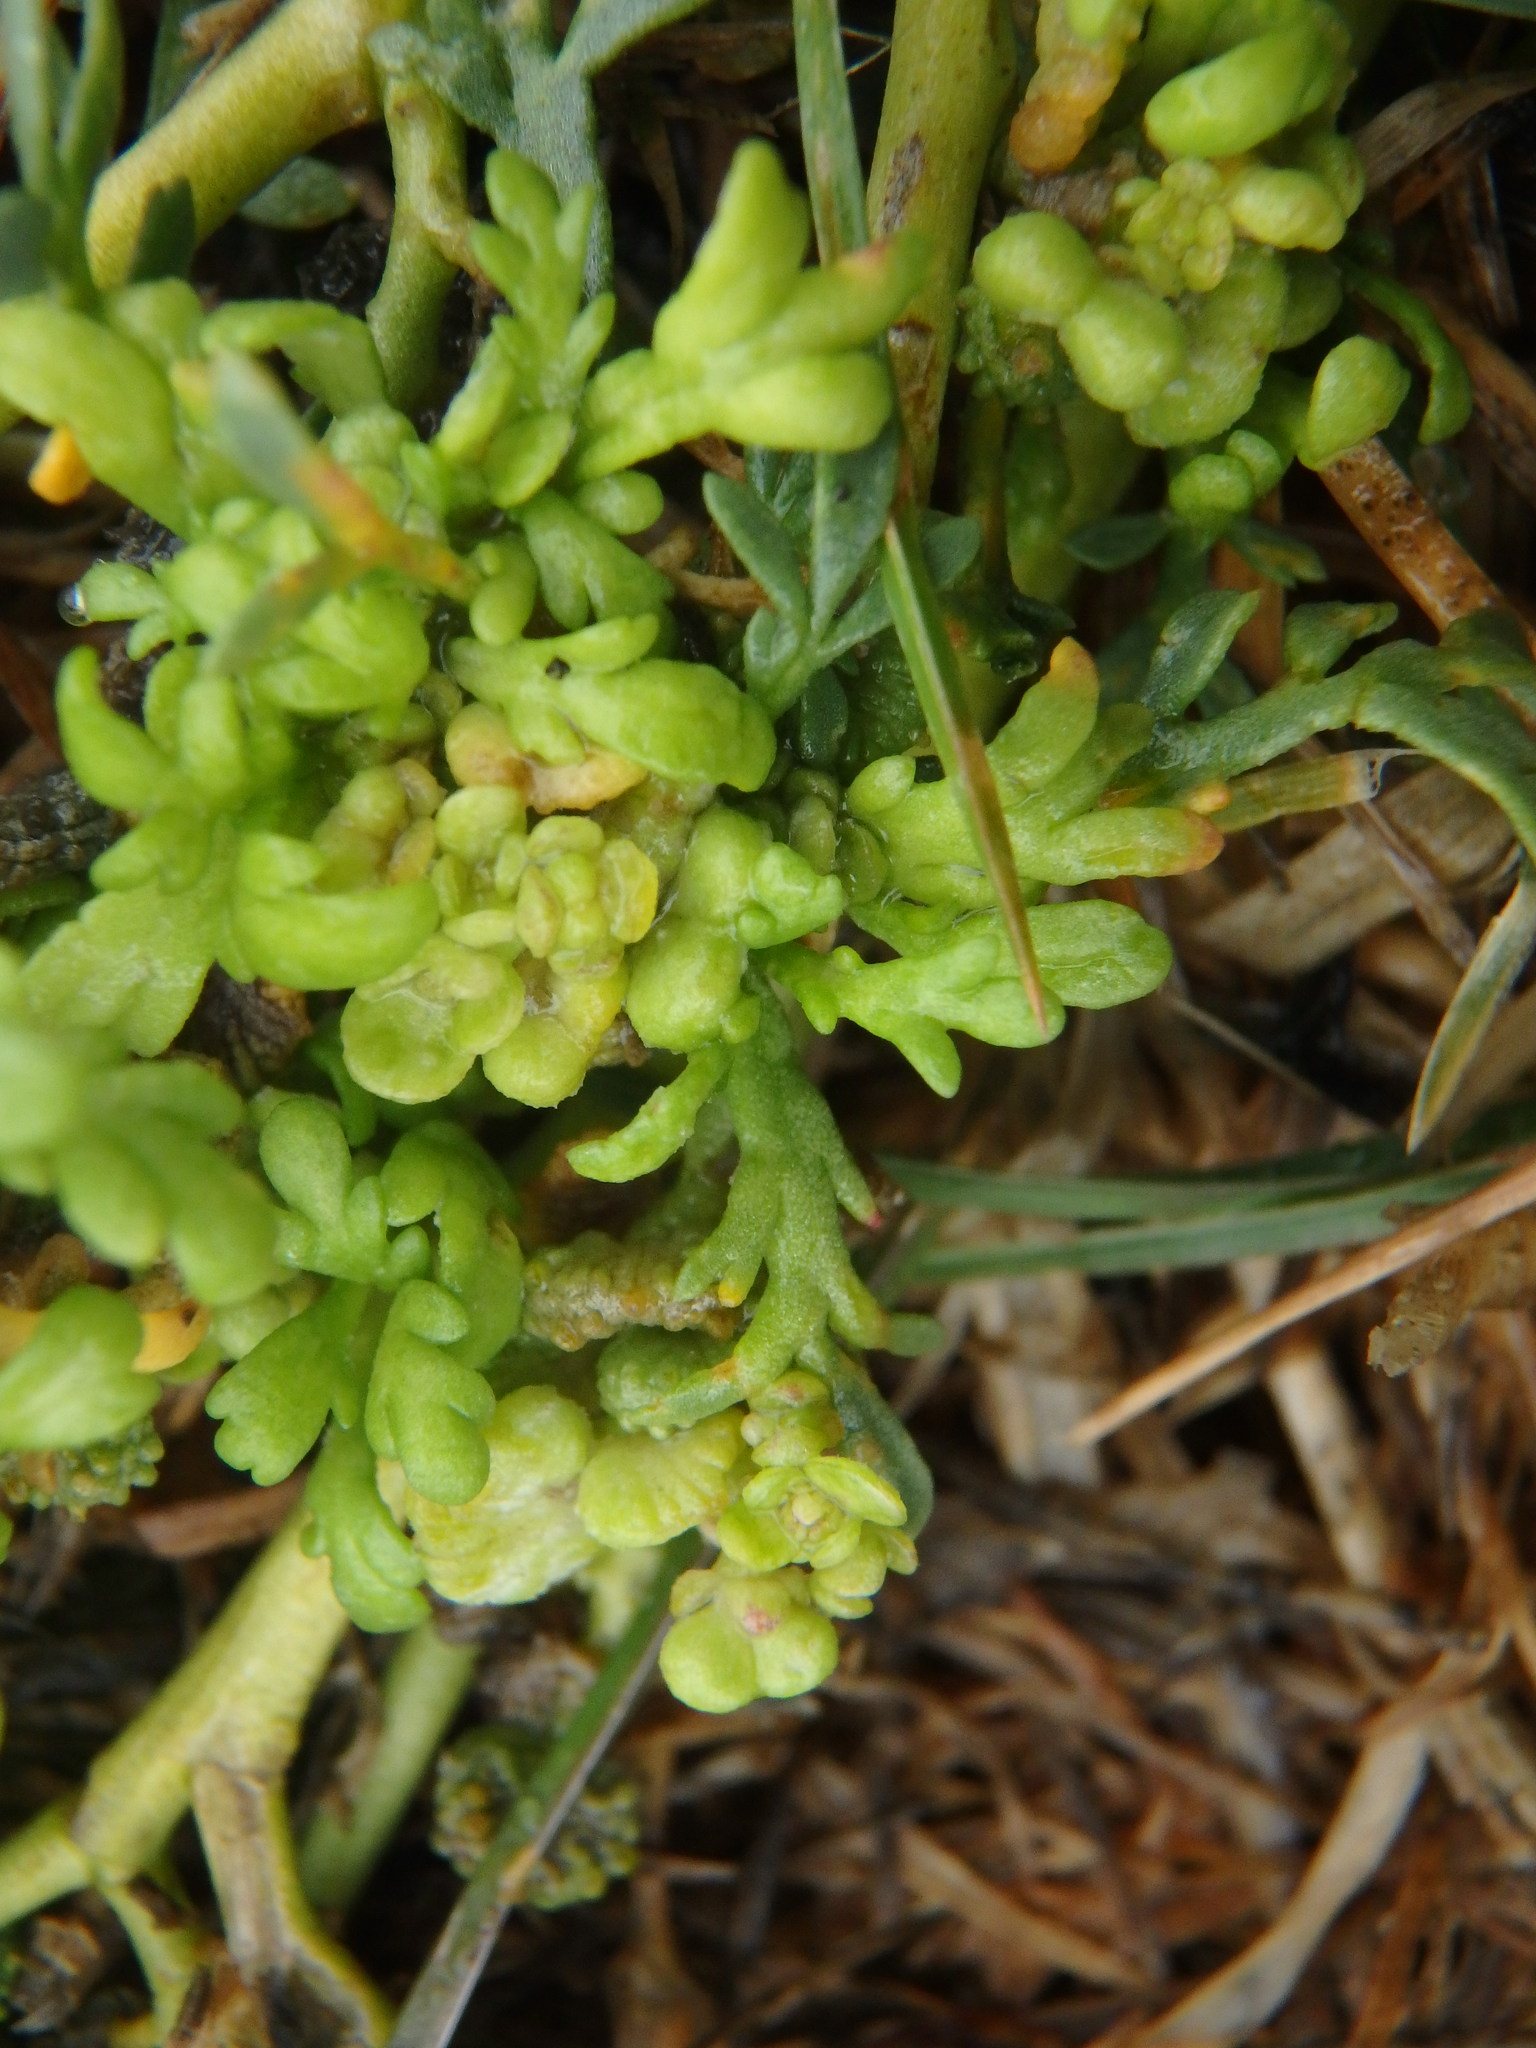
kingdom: Plantae
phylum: Tracheophyta
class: Magnoliopsida
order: Brassicales
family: Brassicaceae
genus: Lepidium
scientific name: Lepidium coronopus
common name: Greater swinecress
